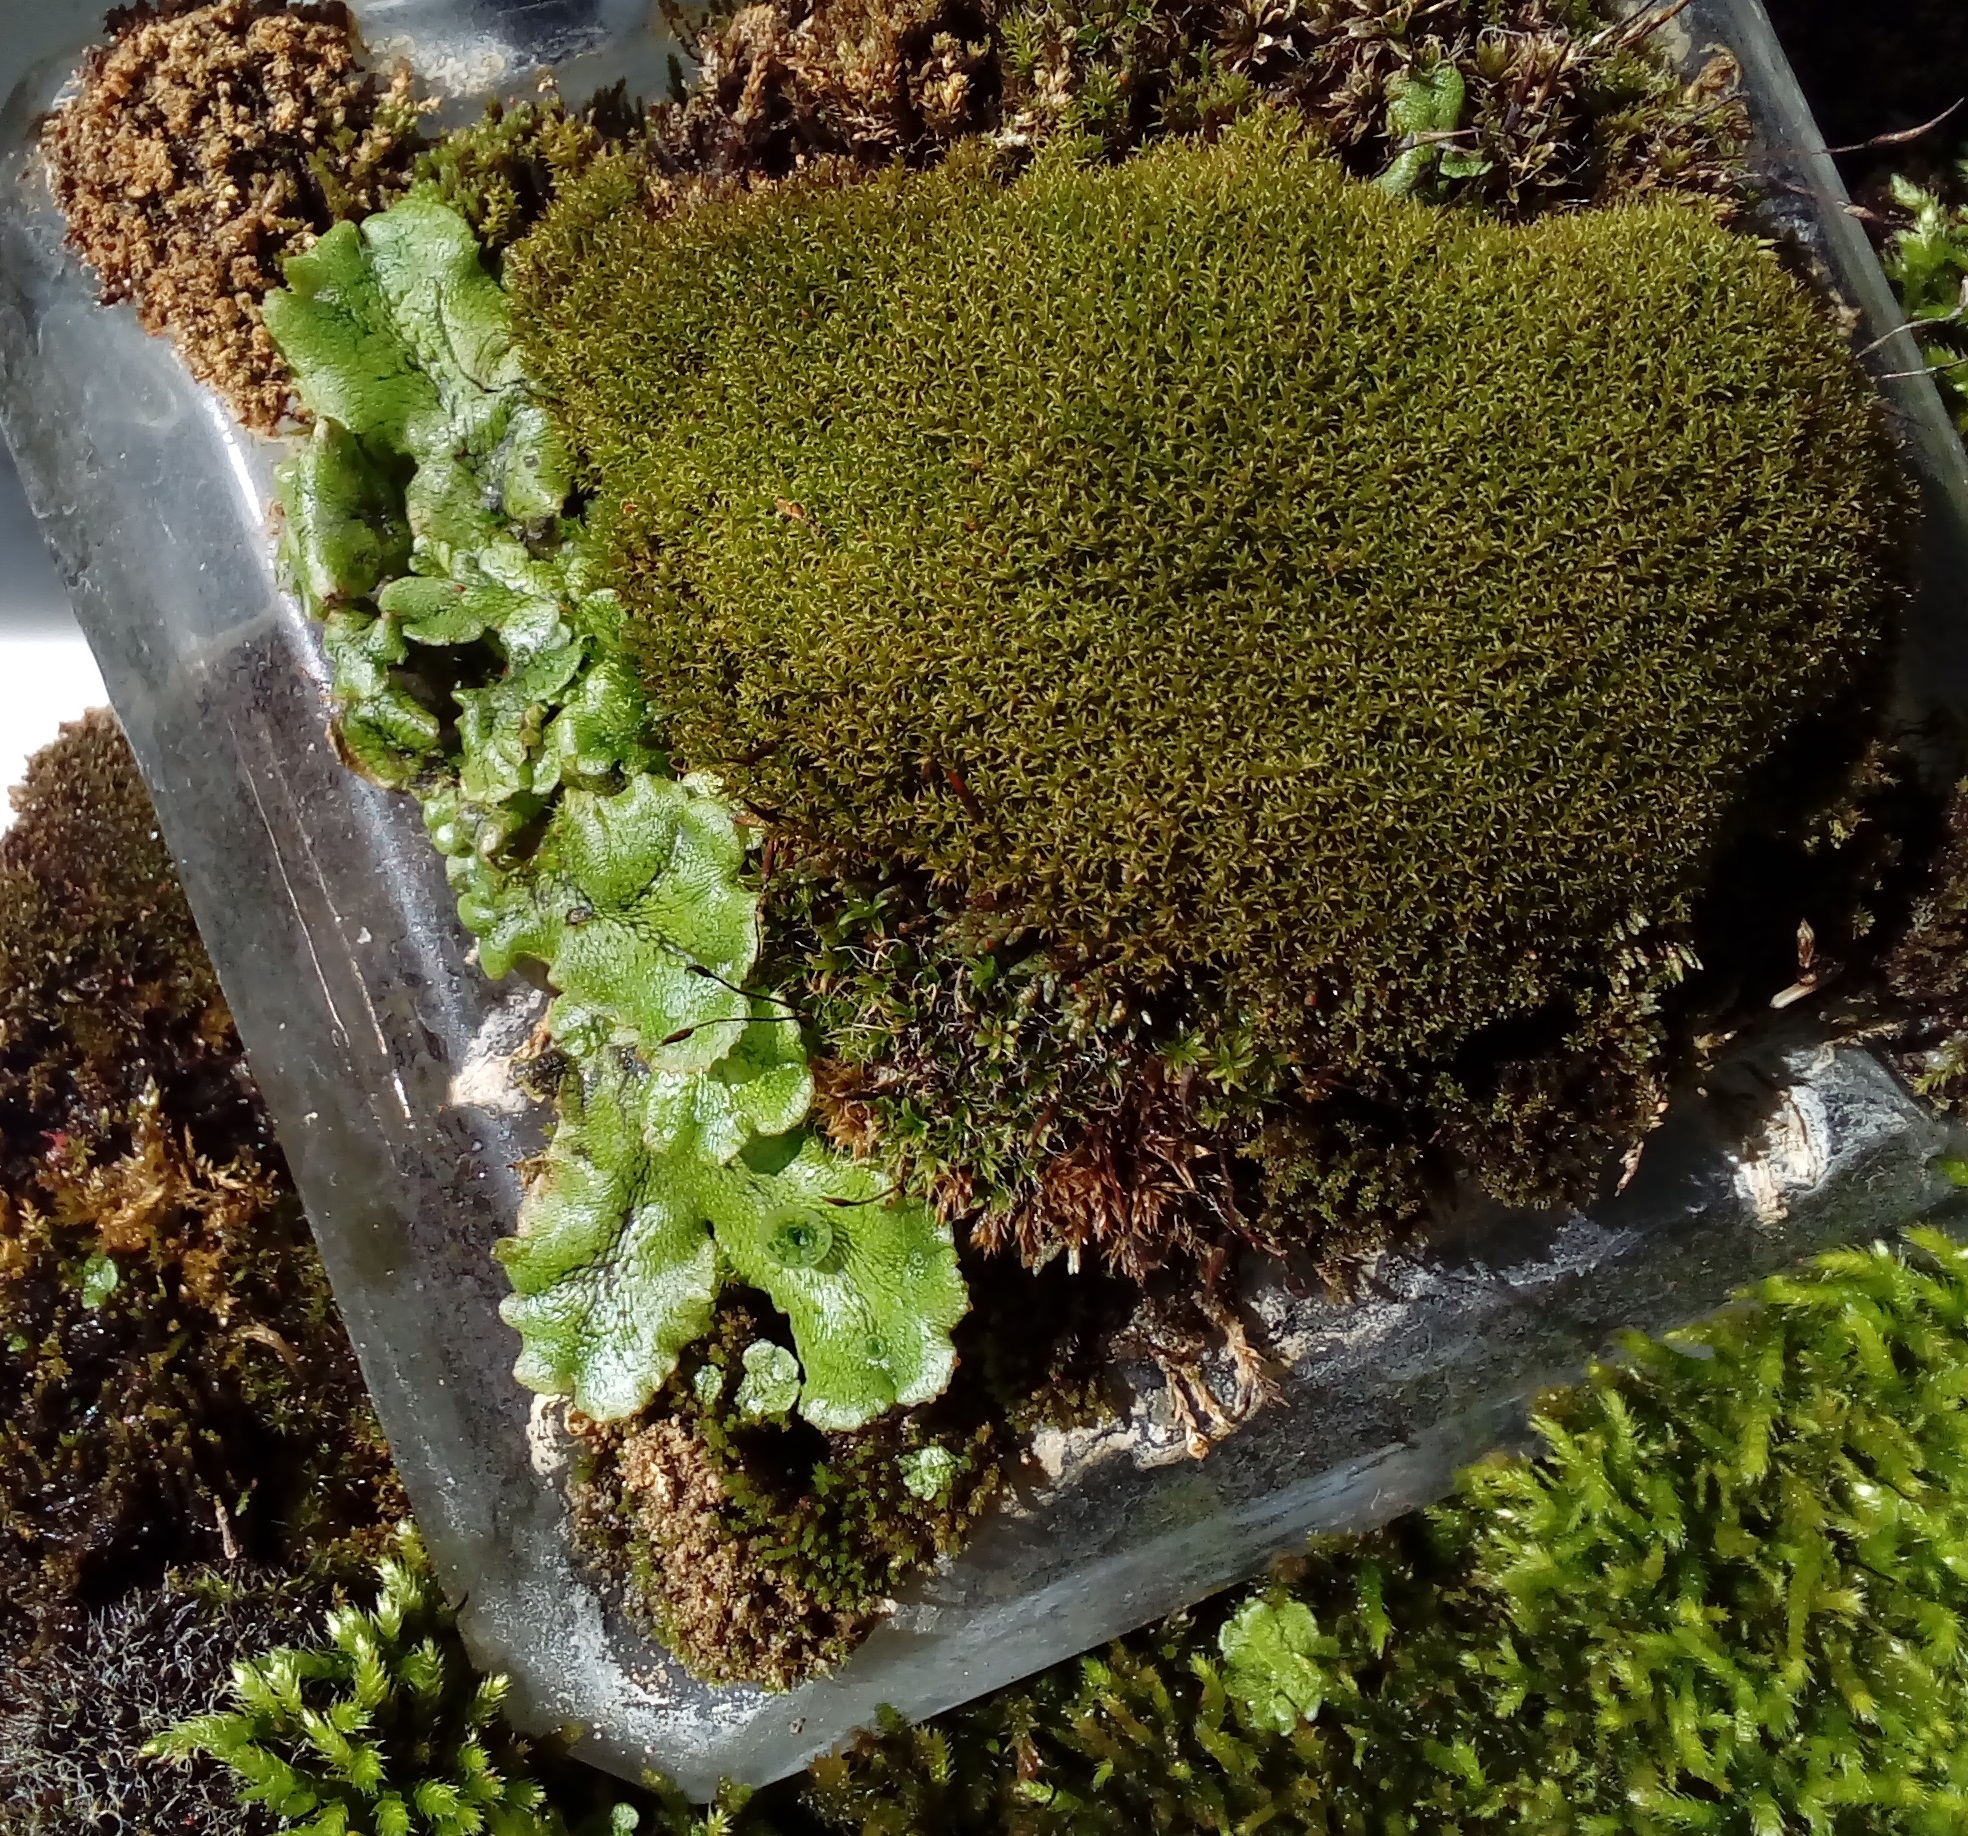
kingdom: Plantae
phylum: Marchantiophyta
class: Marchantiopsida
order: Marchantiales
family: Marchantiaceae
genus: Marchantia
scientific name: Marchantia polymorpha
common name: Common liverwort
